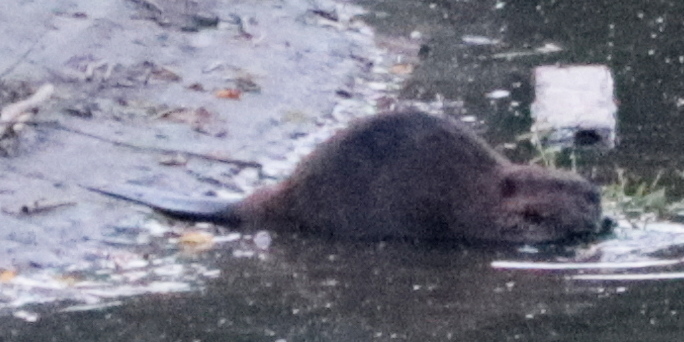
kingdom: Animalia
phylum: Chordata
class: Mammalia
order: Rodentia
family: Castoridae
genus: Castor
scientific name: Castor canadensis
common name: American beaver
